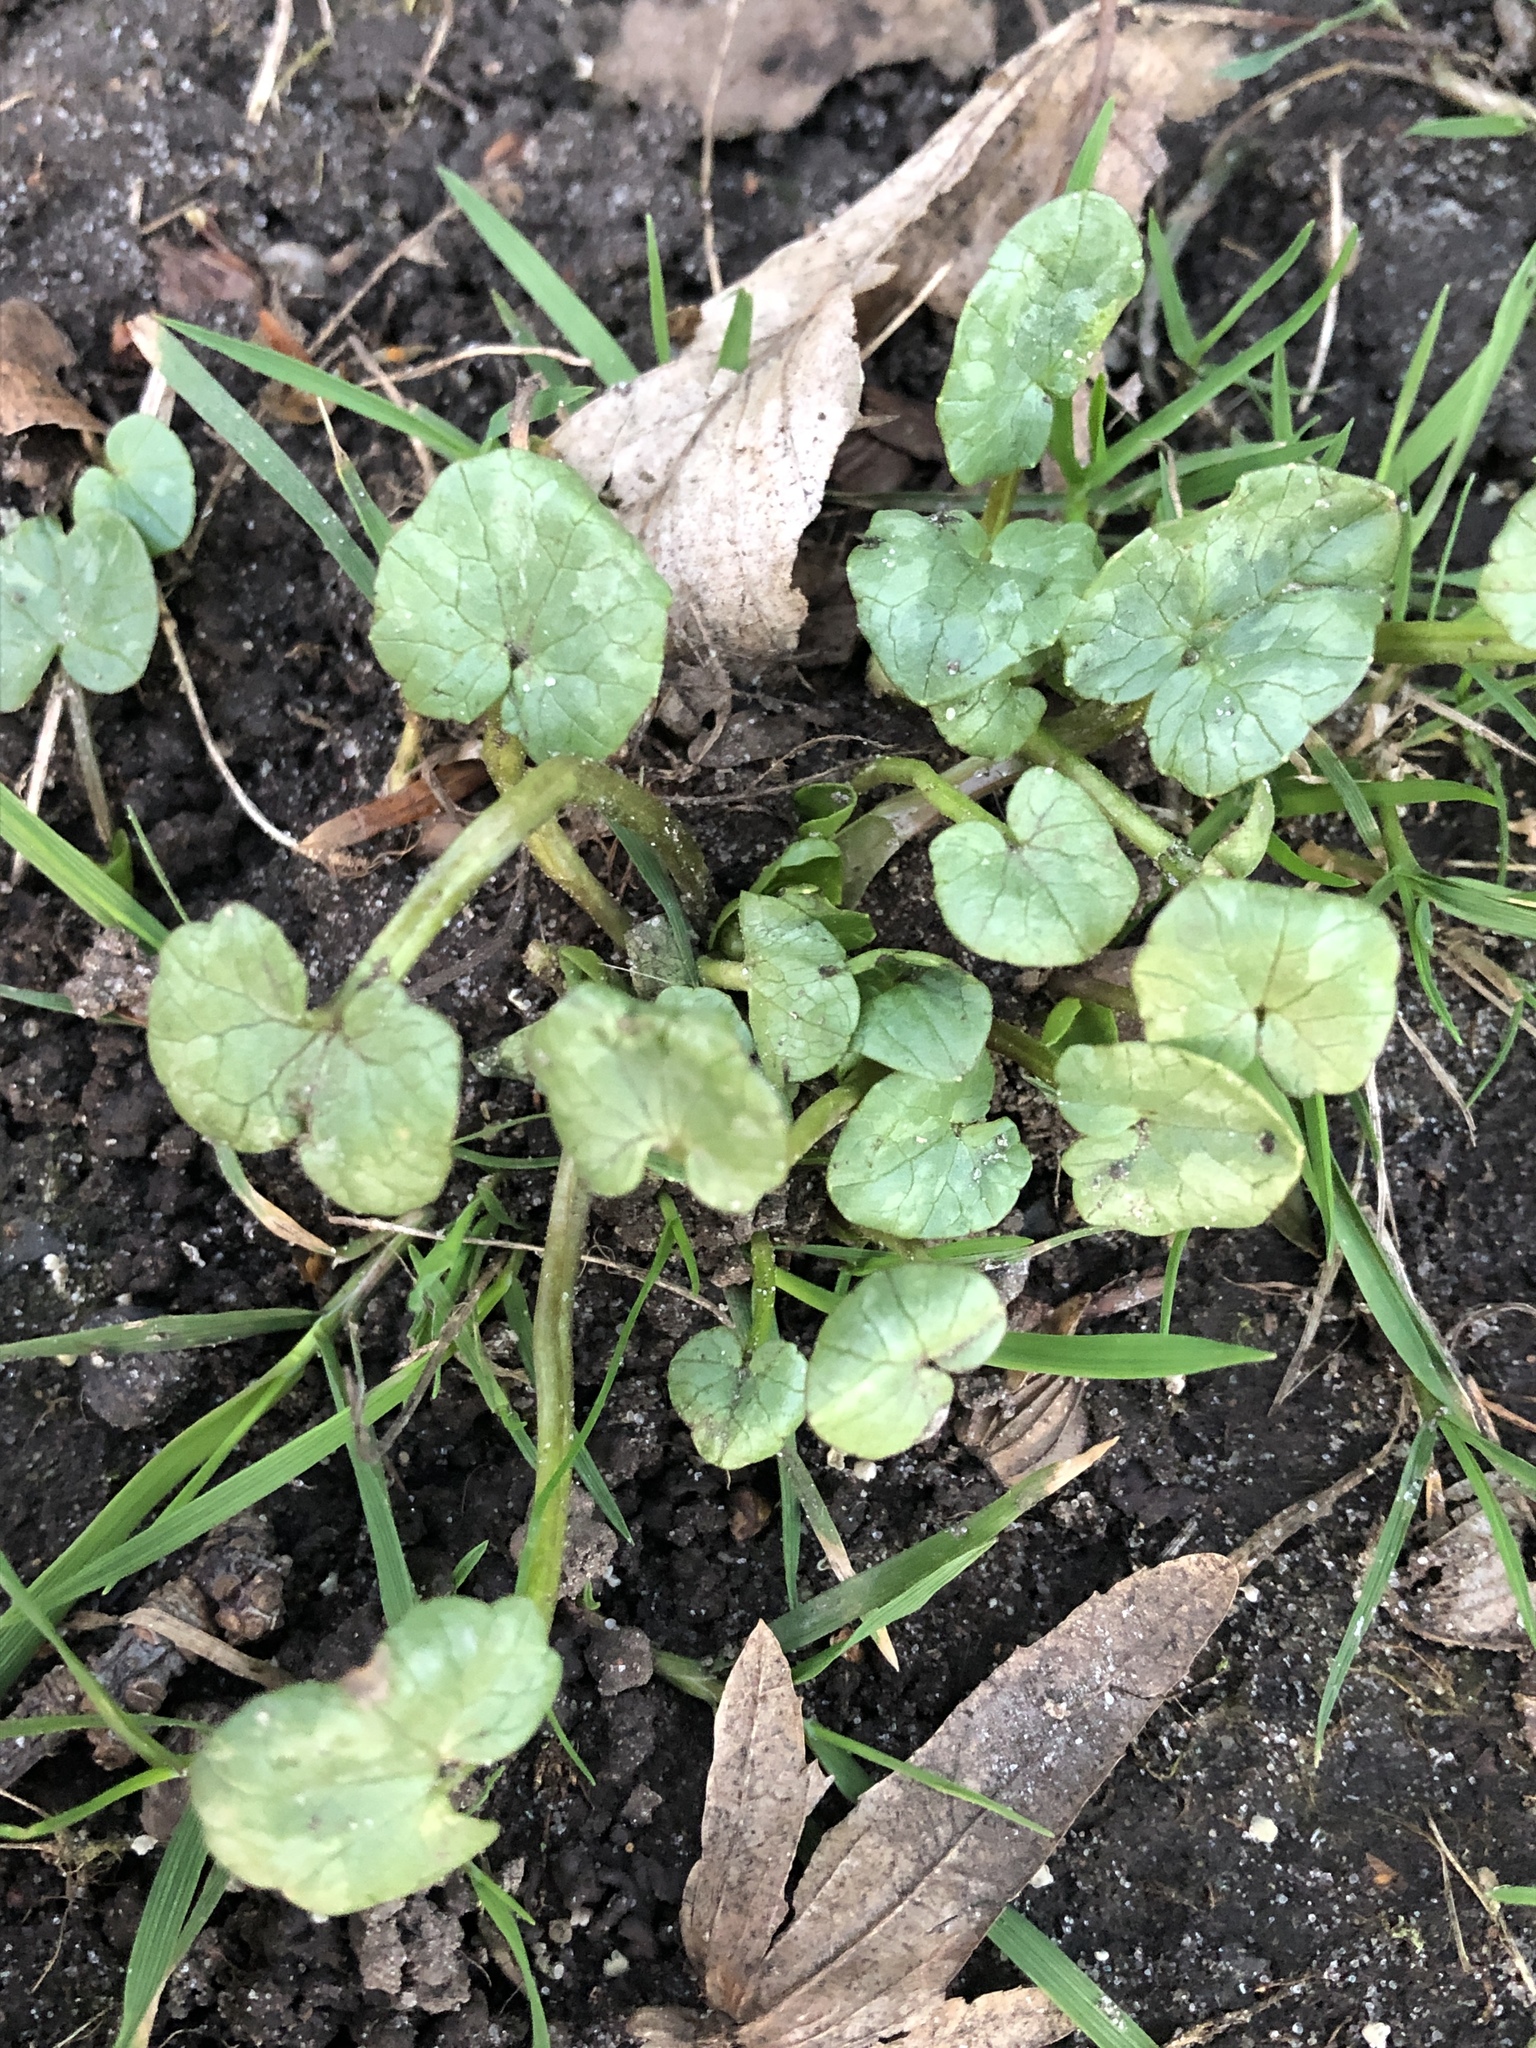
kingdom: Plantae
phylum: Tracheophyta
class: Magnoliopsida
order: Ranunculales
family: Ranunculaceae
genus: Ficaria
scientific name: Ficaria verna
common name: Lesser celandine
